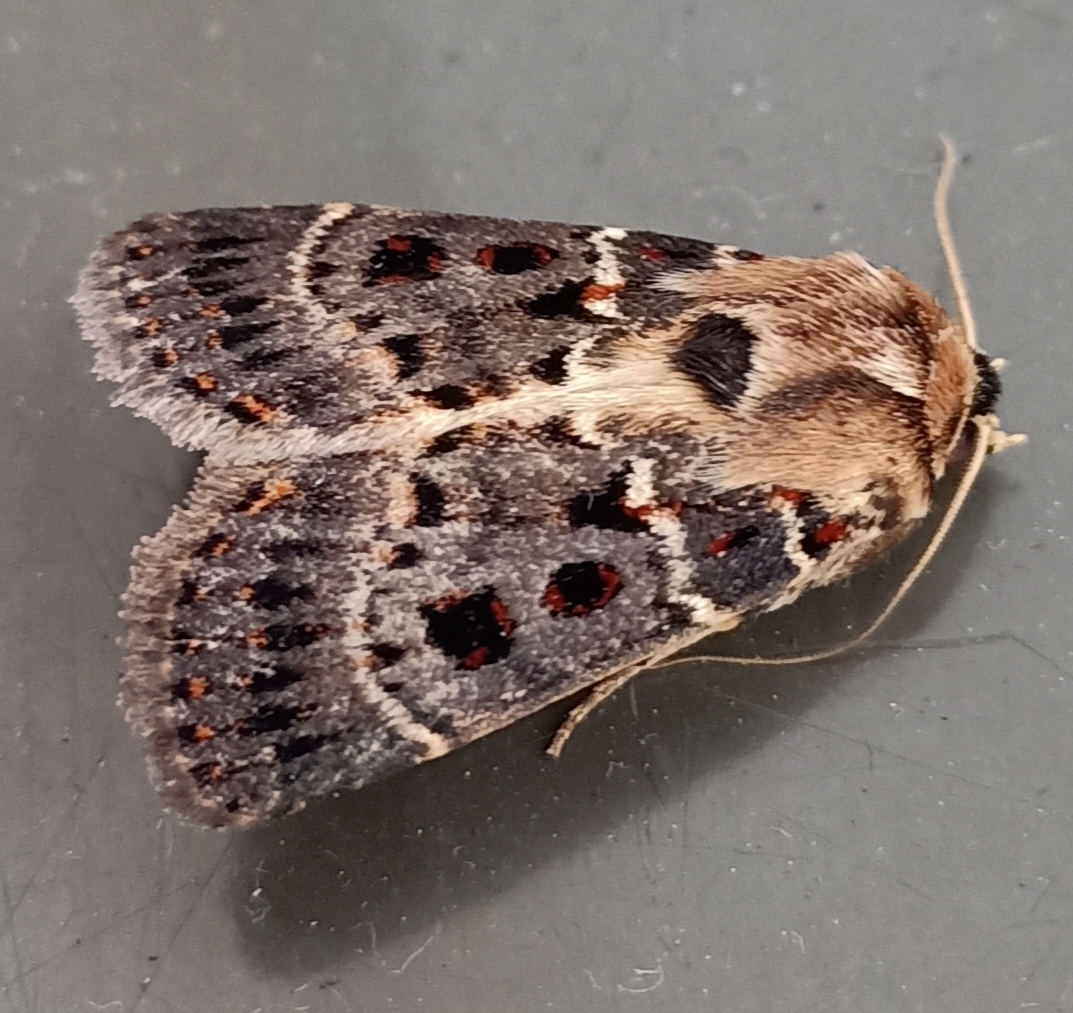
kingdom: Animalia
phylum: Arthropoda
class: Insecta
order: Lepidoptera
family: Noctuidae
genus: Proteuxoa
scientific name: Proteuxoa sanguinipuncta
